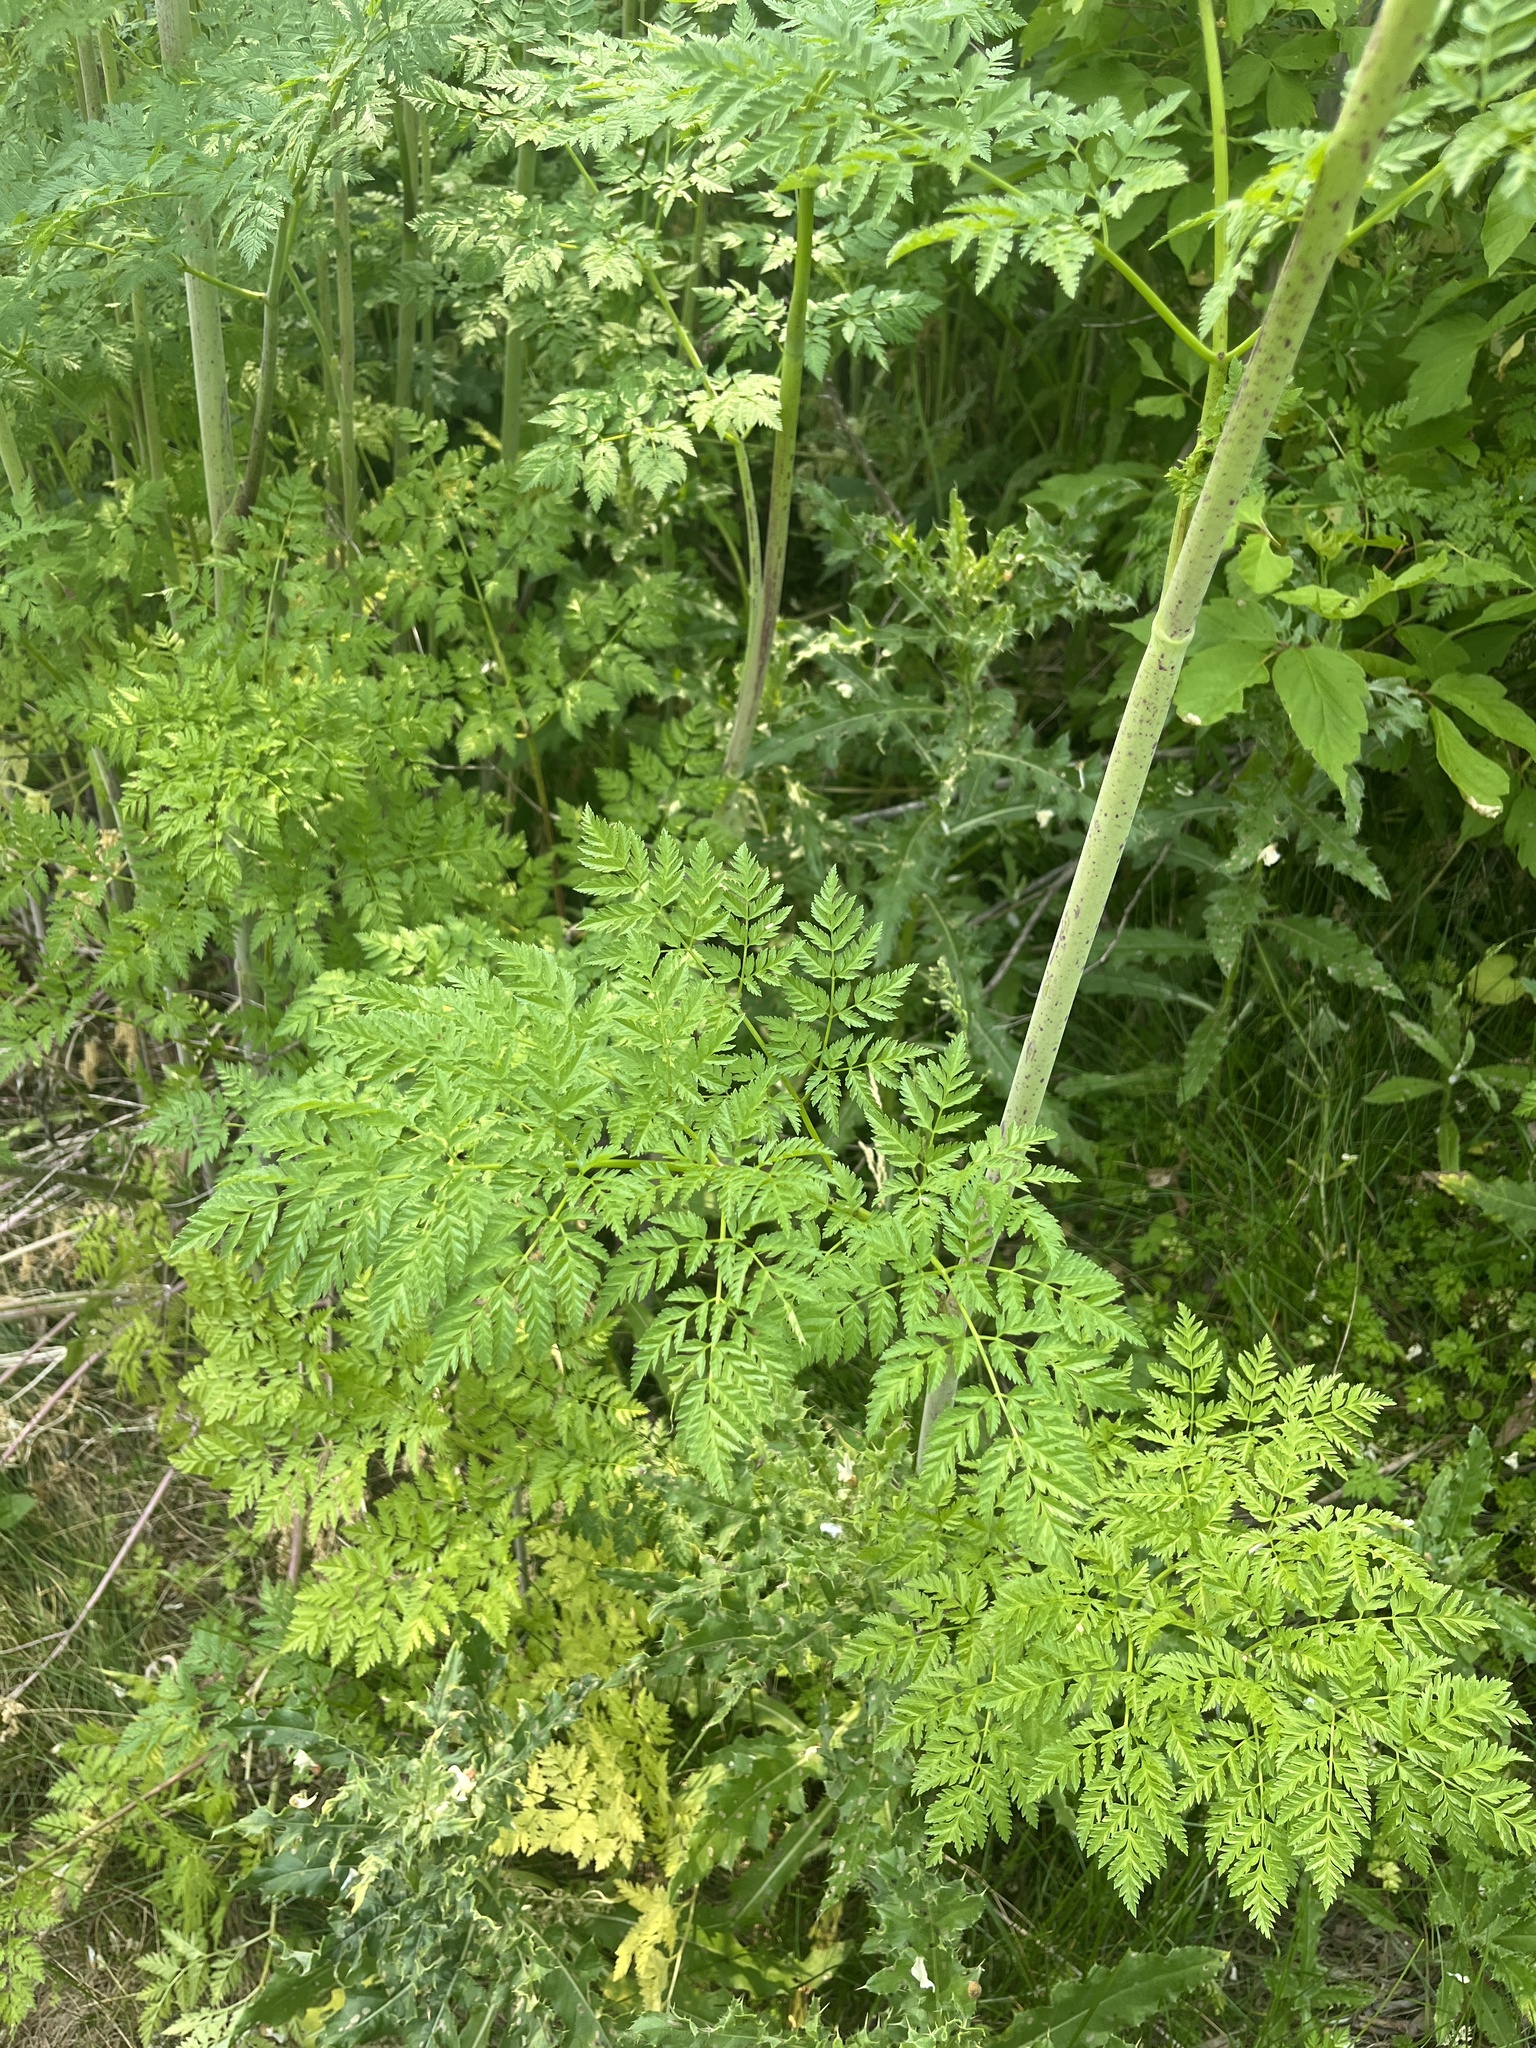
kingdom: Plantae
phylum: Tracheophyta
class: Magnoliopsida
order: Apiales
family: Apiaceae
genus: Conium
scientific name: Conium maculatum
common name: Hemlock
